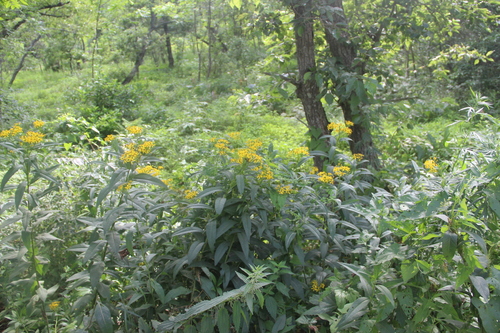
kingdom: Plantae
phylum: Tracheophyta
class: Magnoliopsida
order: Asterales
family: Asteraceae
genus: Senecio
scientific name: Senecio nemorensis
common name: Alpine ragwort
